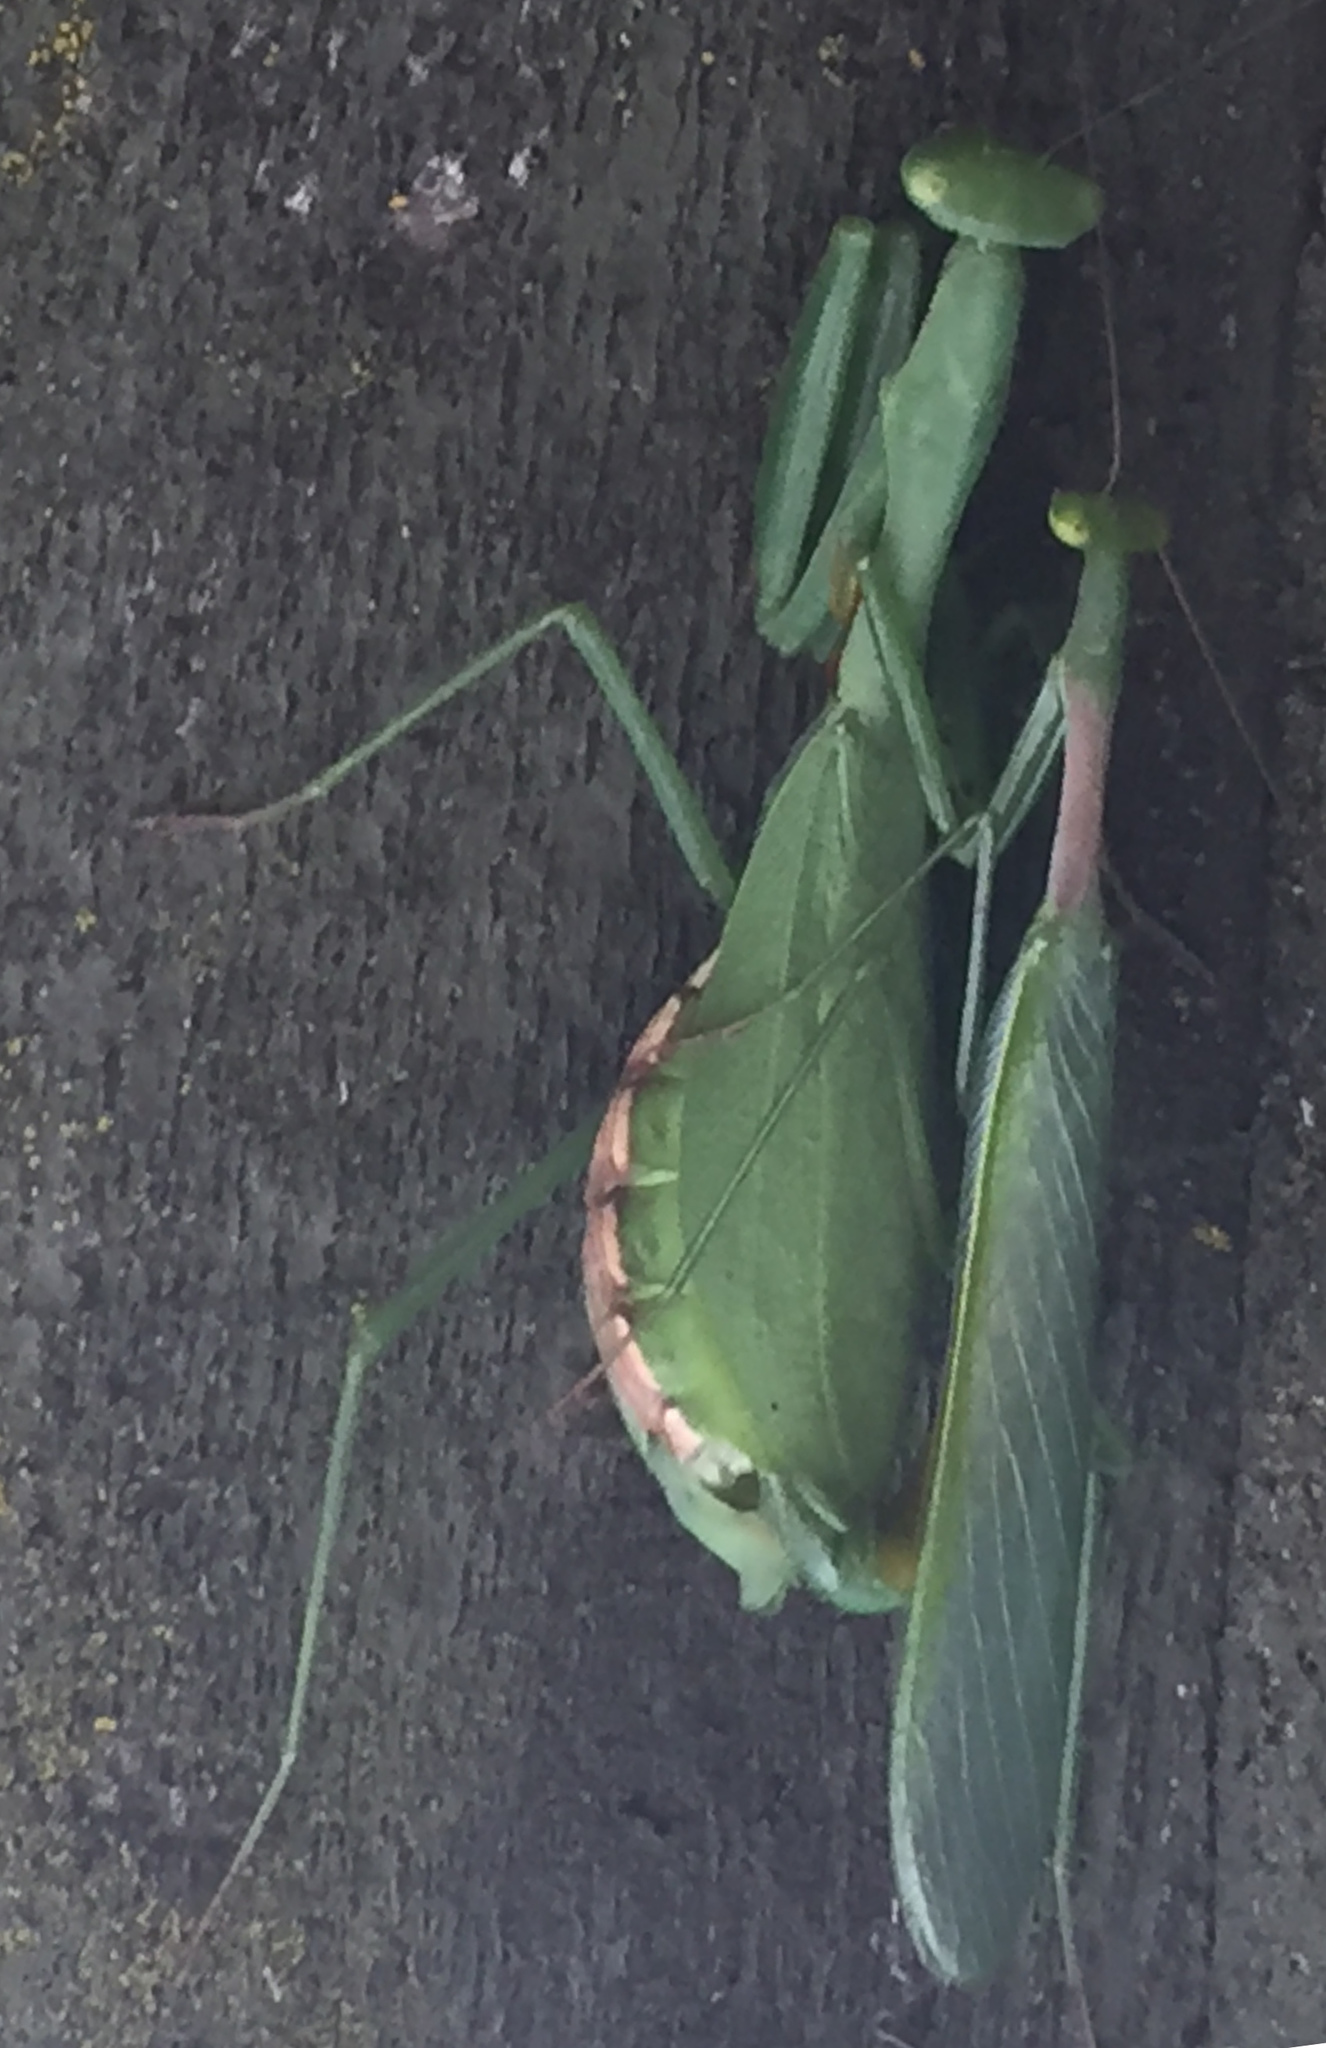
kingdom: Animalia
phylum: Arthropoda
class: Insecta
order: Mantodea
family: Miomantidae
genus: Miomantis
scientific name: Miomantis caffra
